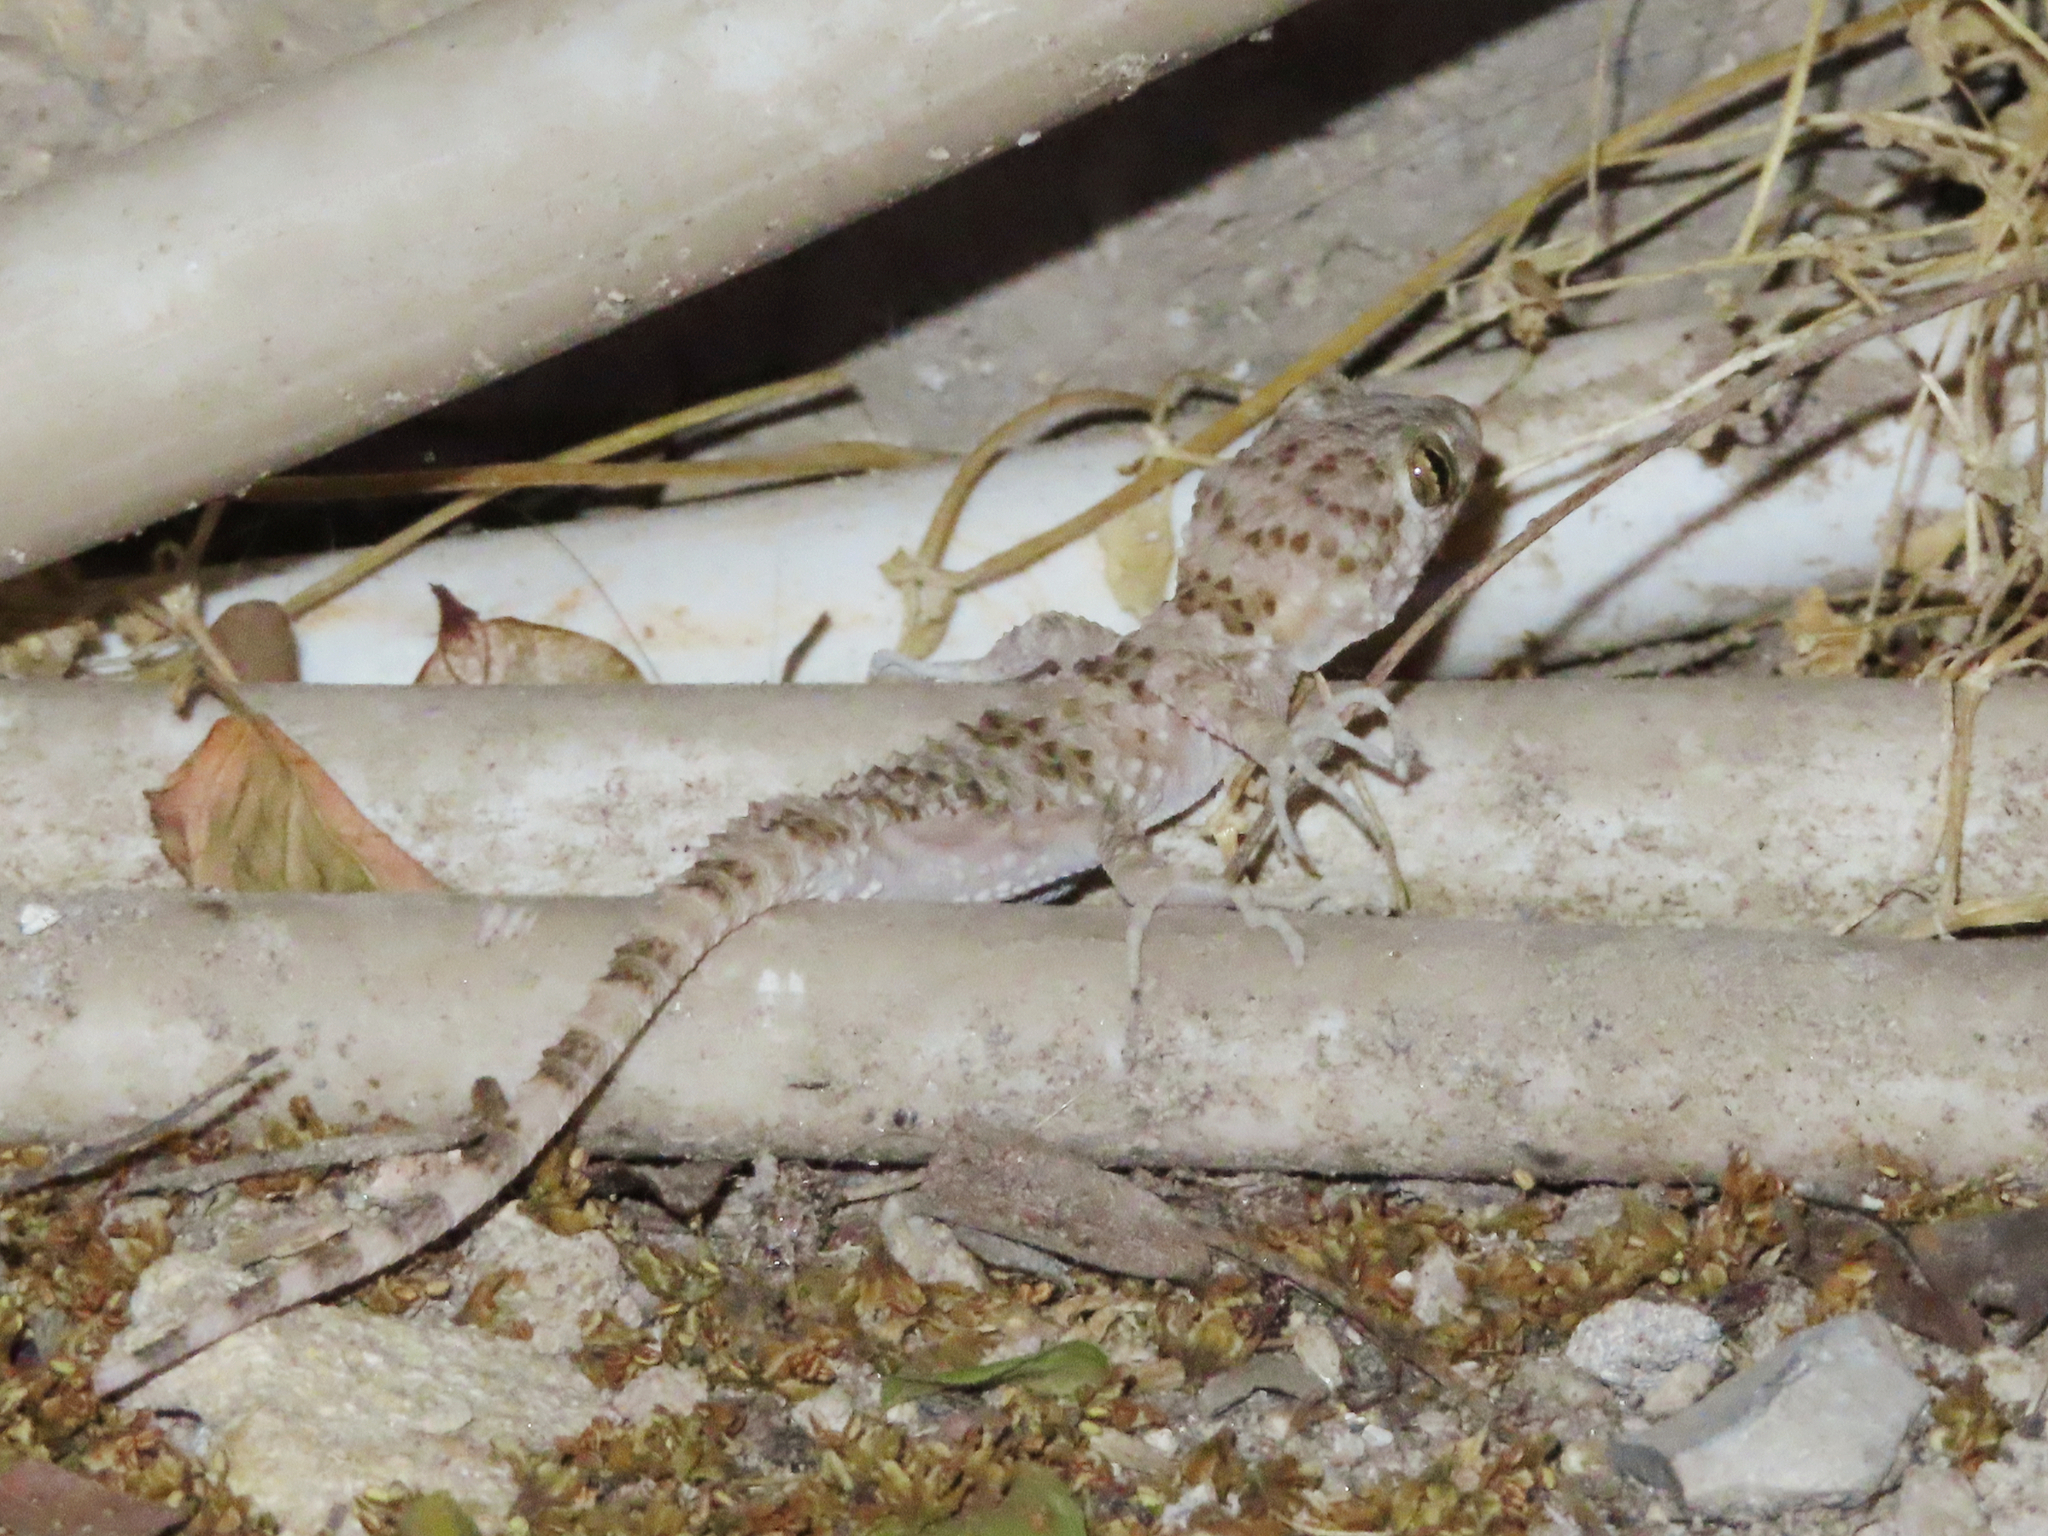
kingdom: Animalia
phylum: Chordata
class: Squamata
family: Gekkonidae
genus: Tenuidactylus
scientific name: Tenuidactylus caspius
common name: Caspian bent-toed gecko
